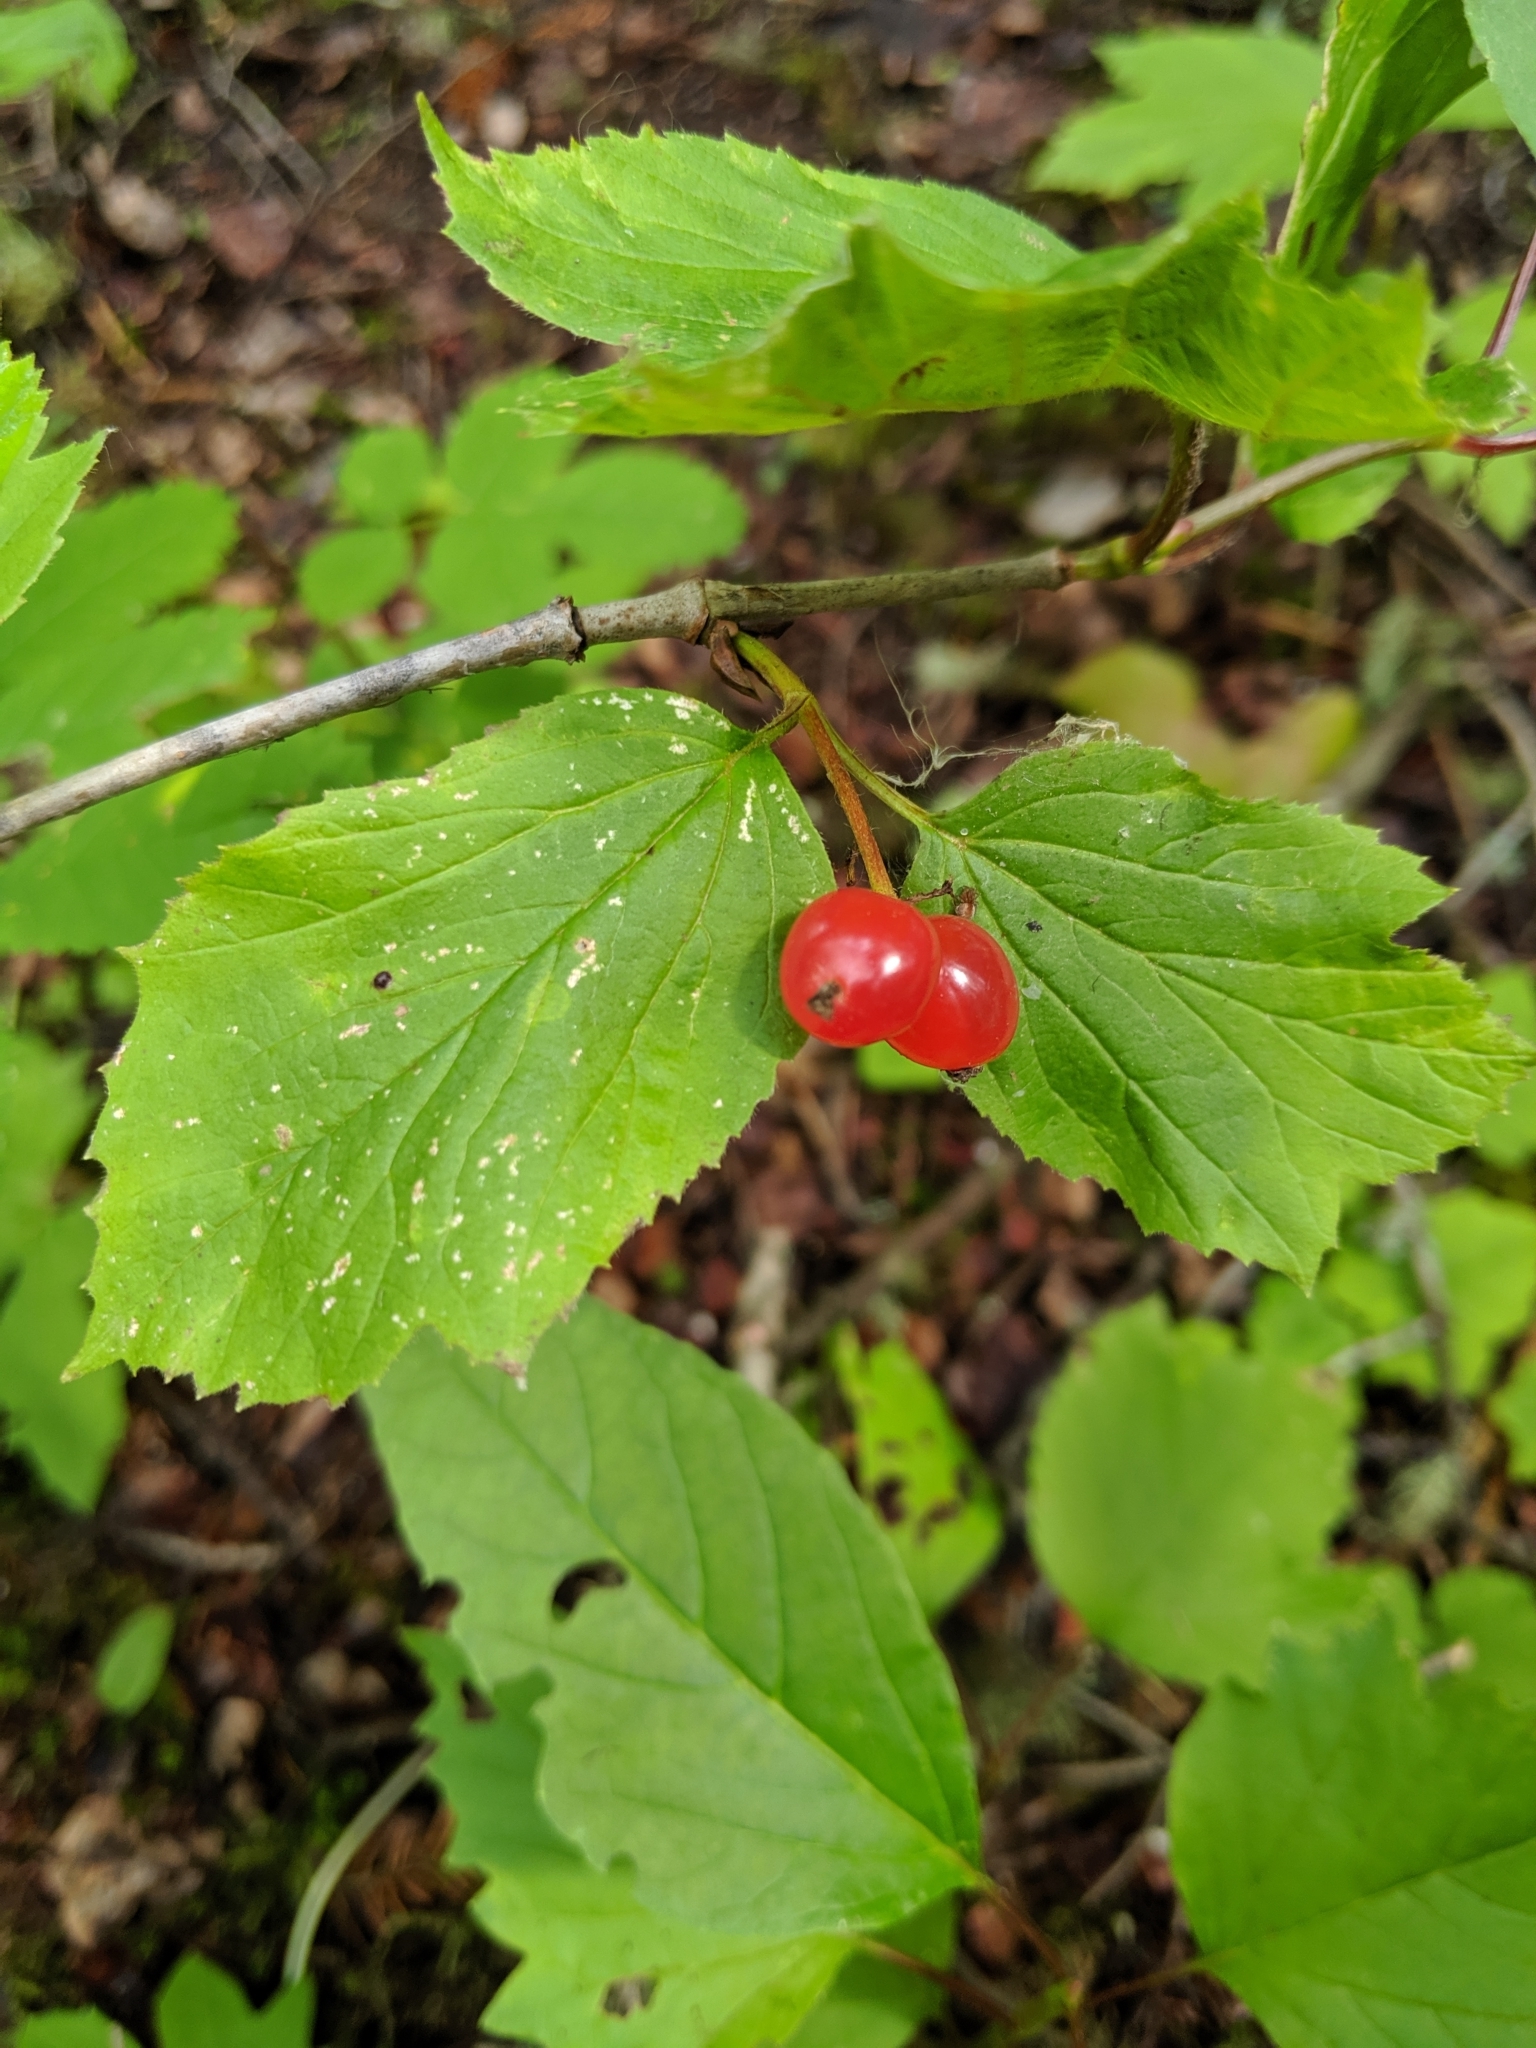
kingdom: Plantae
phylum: Tracheophyta
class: Magnoliopsida
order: Dipsacales
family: Viburnaceae
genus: Viburnum
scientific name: Viburnum edule
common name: Mooseberry
